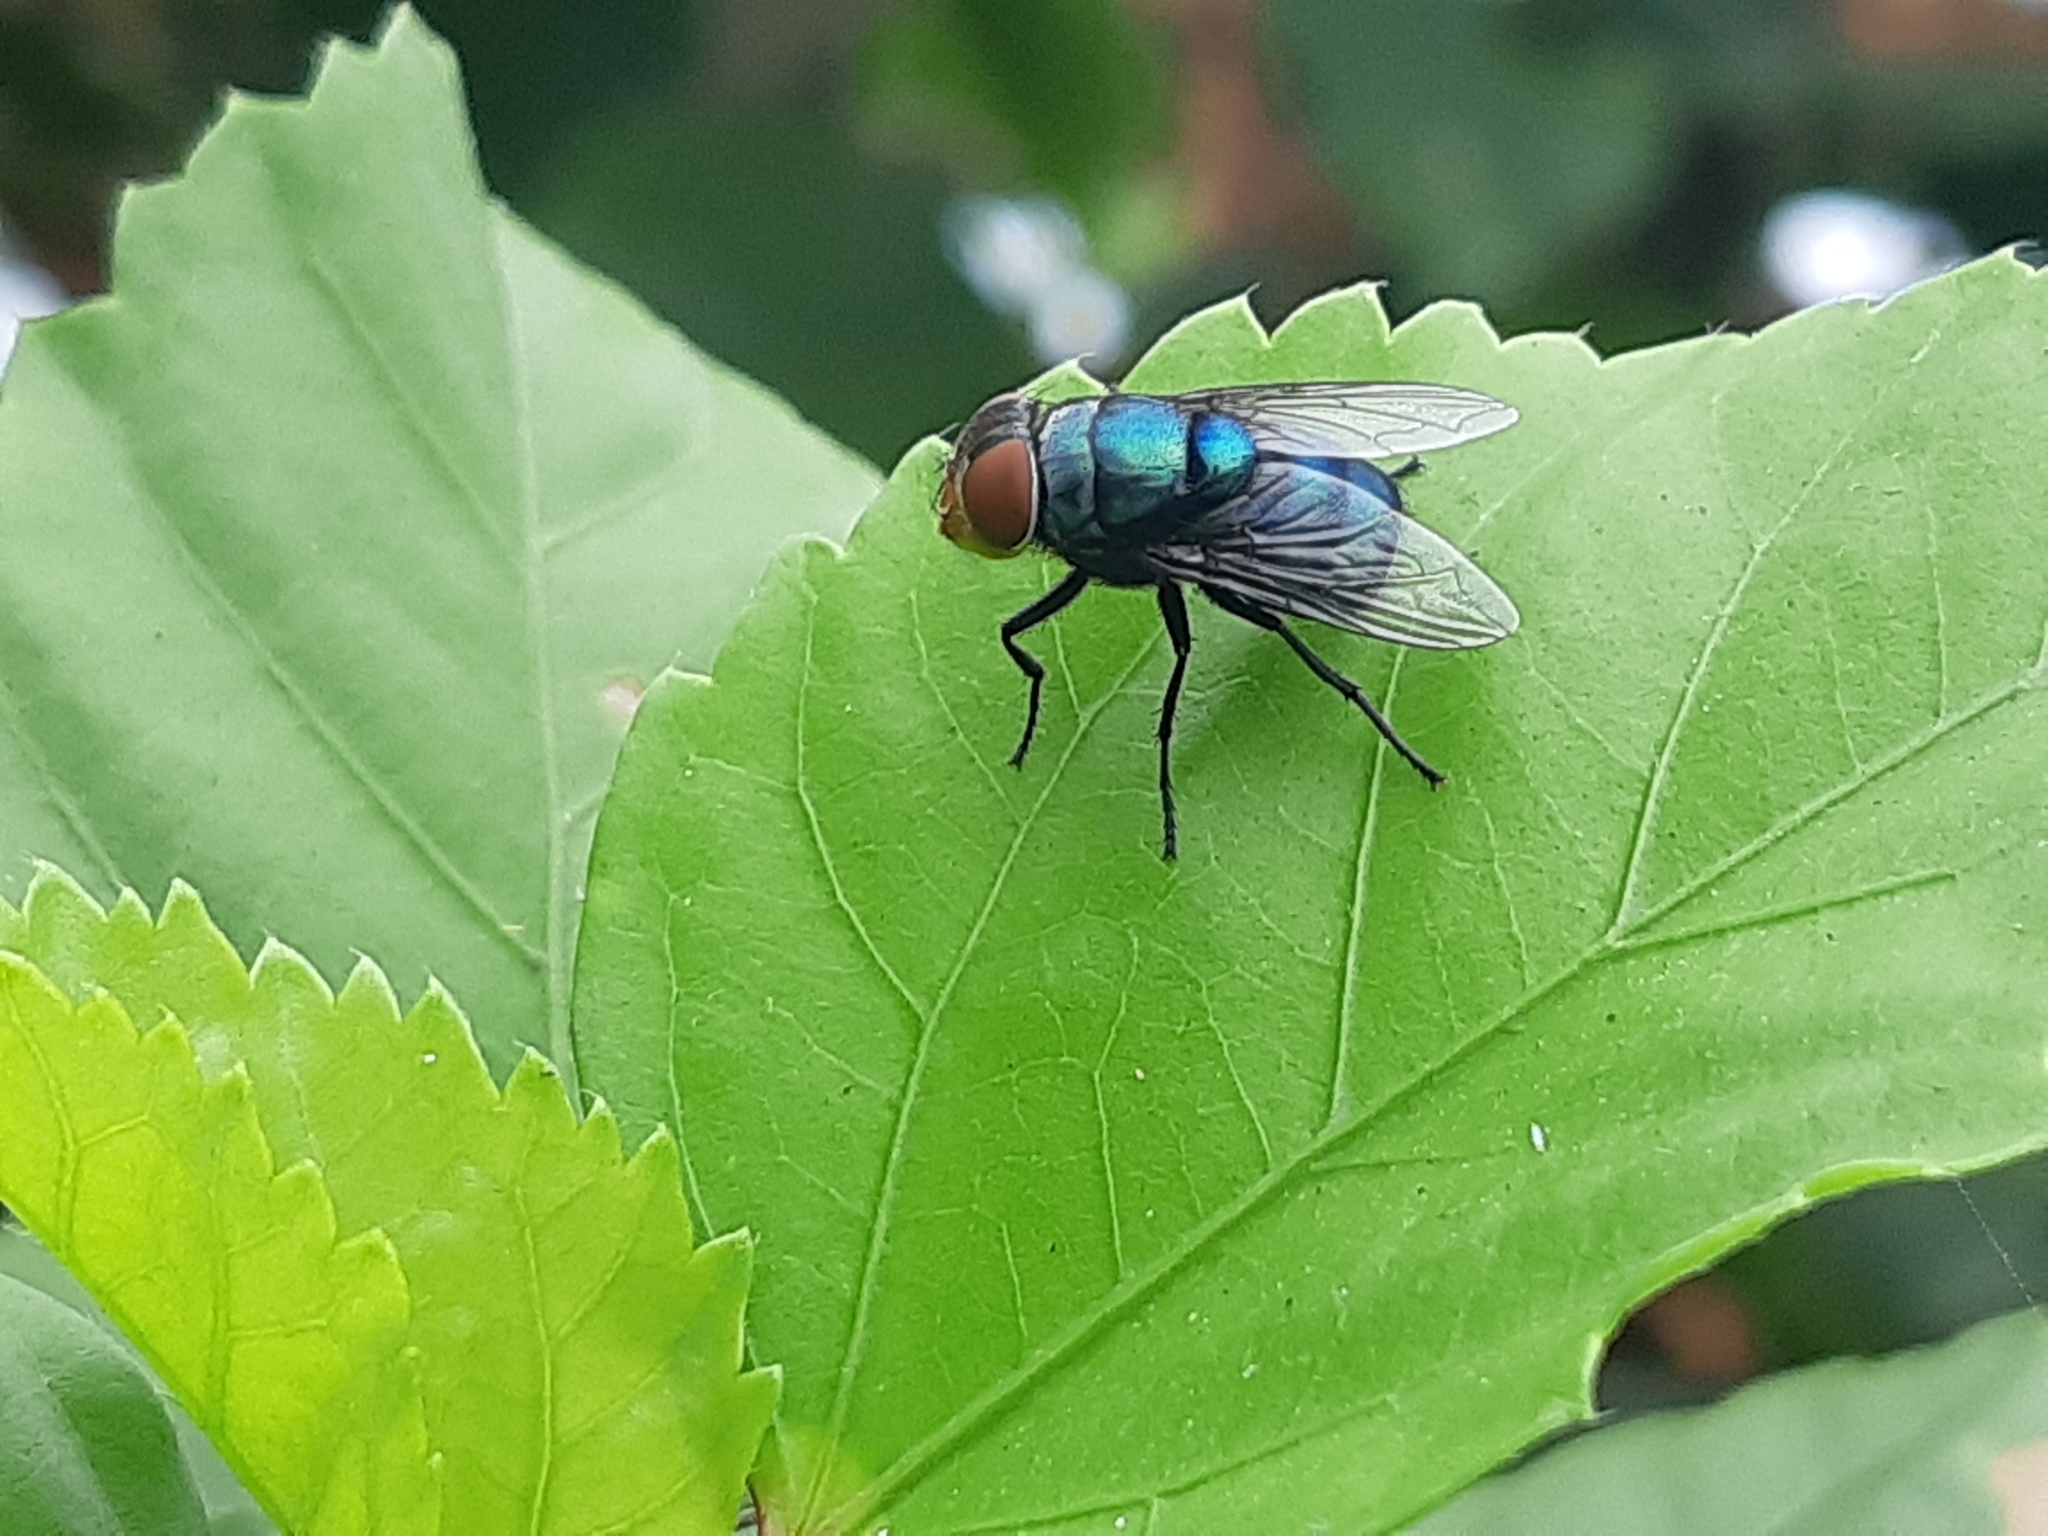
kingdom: Animalia
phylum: Arthropoda
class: Insecta
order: Diptera
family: Calliphoridae
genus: Chrysomya
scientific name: Chrysomya megacephala
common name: Blow fly
